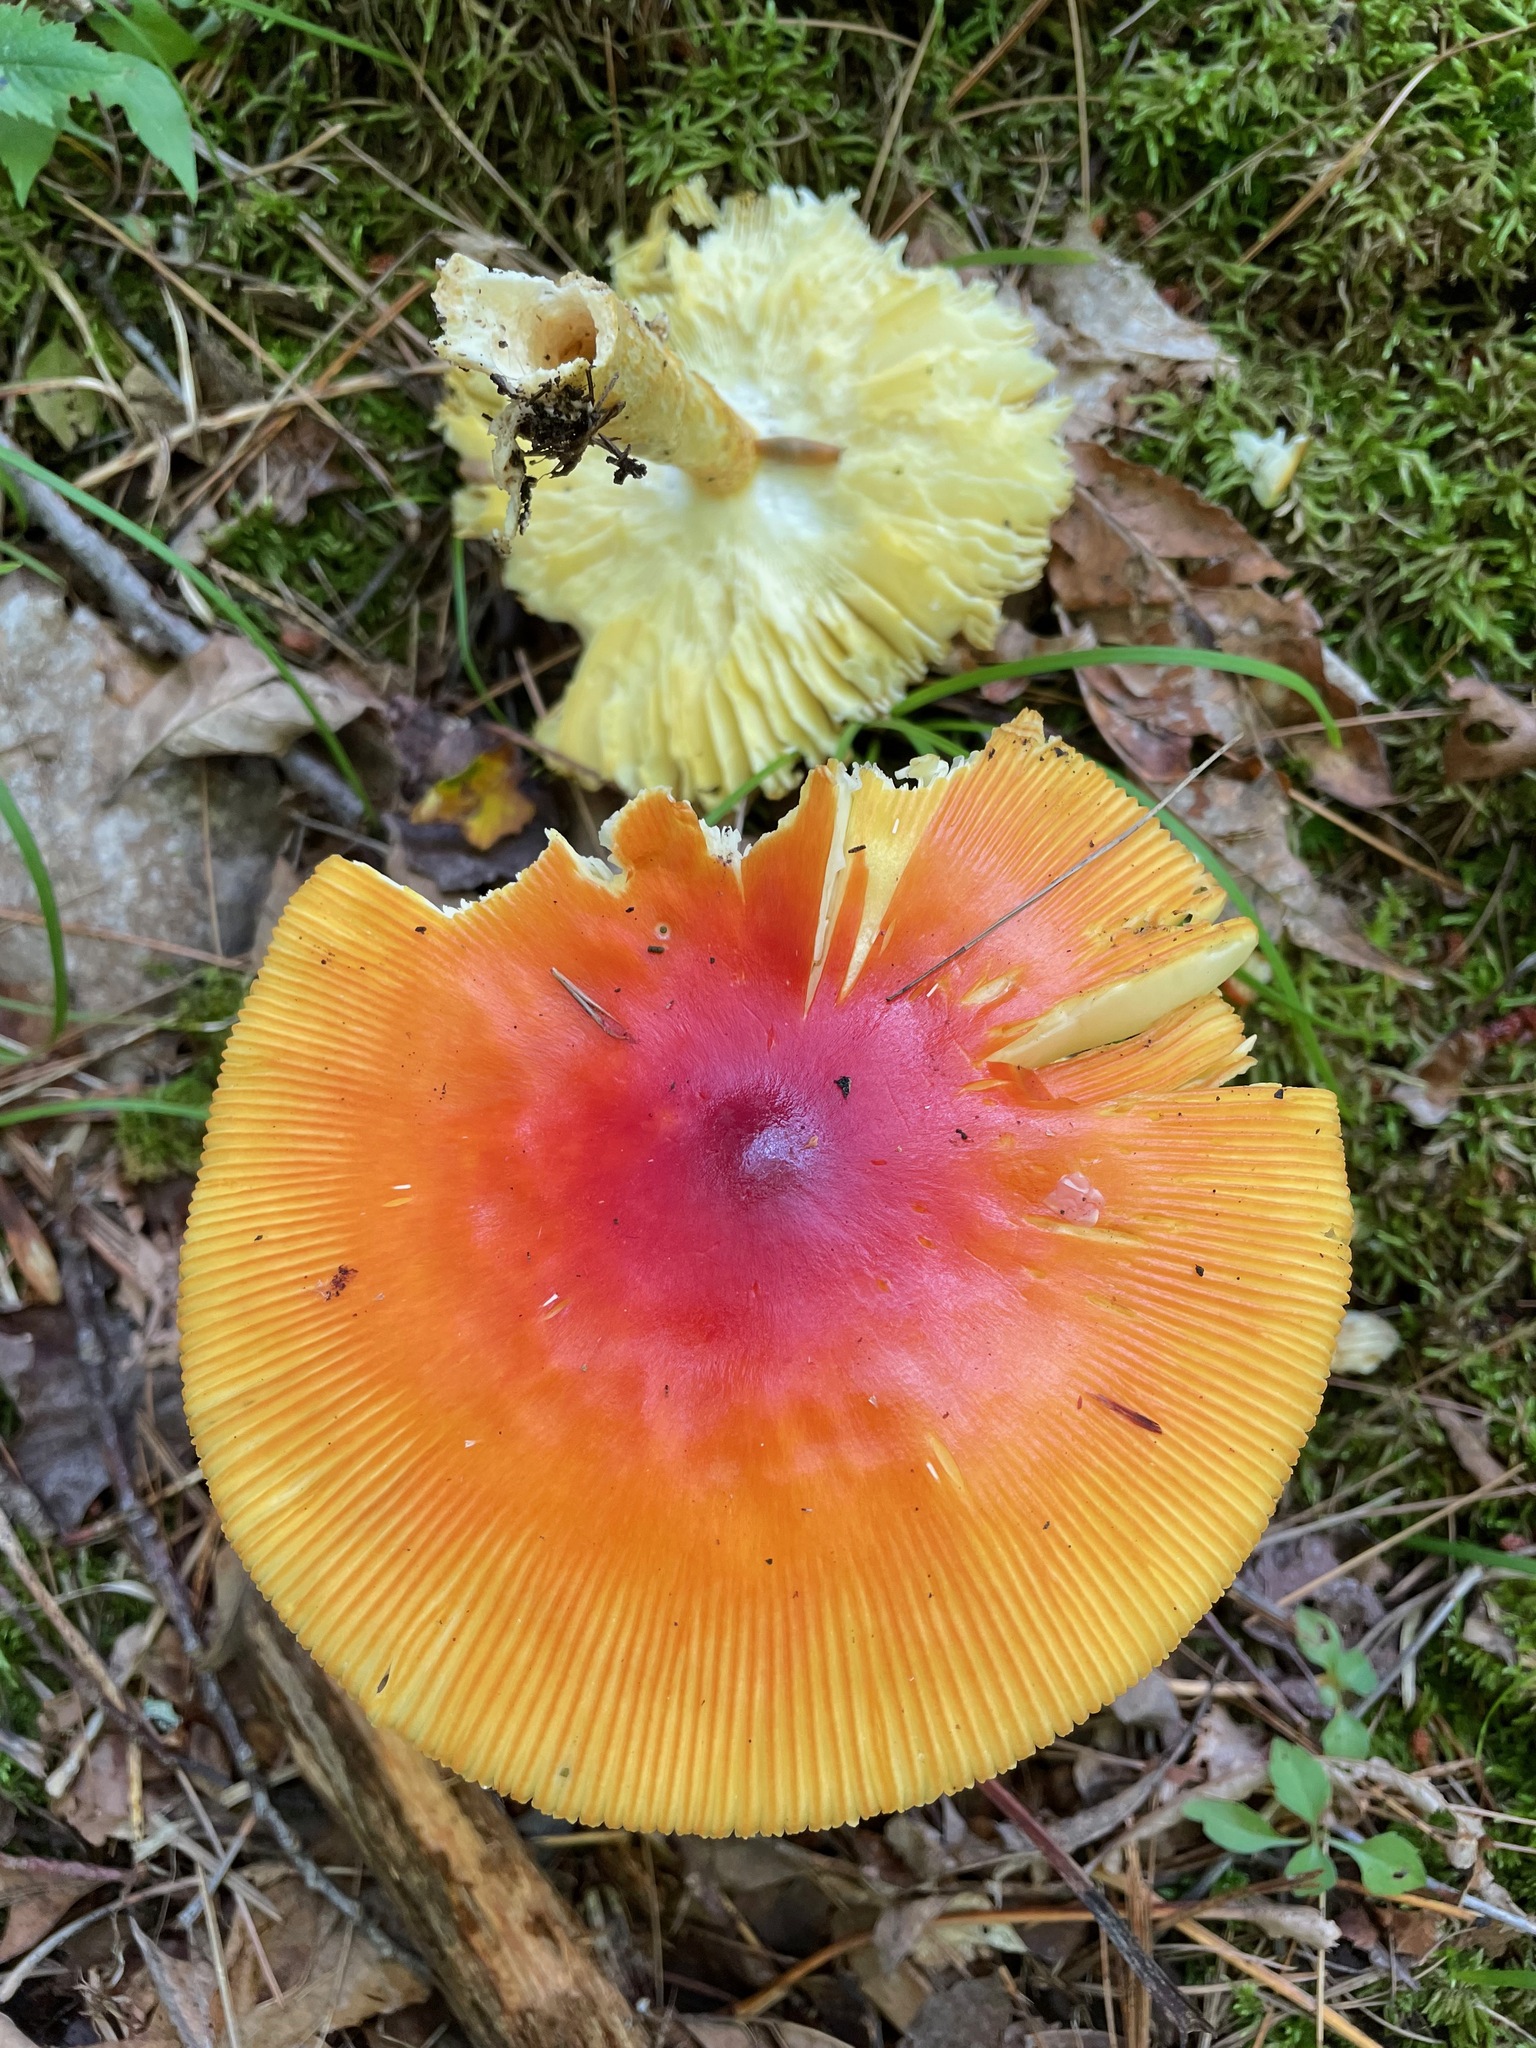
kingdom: Fungi
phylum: Basidiomycota
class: Agaricomycetes
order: Agaricales
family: Amanitaceae
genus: Amanita
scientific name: Amanita jacksonii
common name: Jackson's slender caesar
